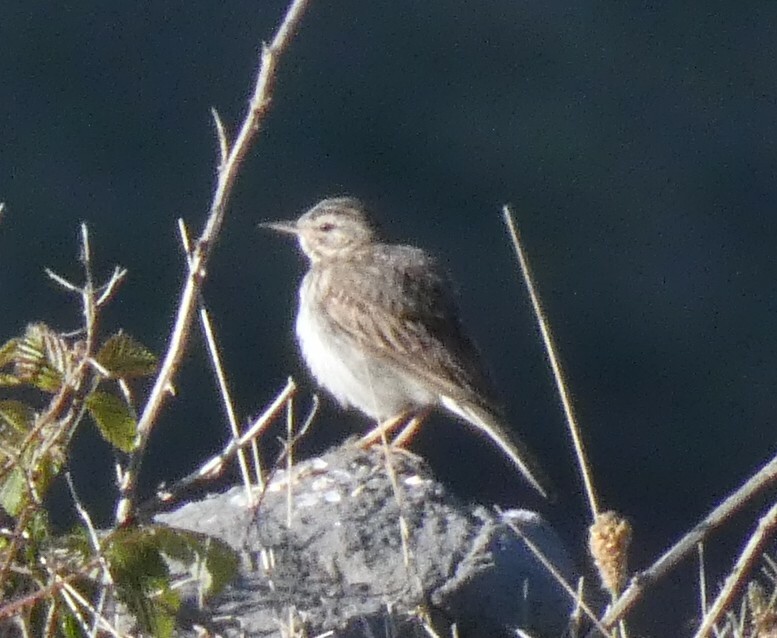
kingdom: Animalia
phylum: Chordata
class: Aves
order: Passeriformes
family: Motacillidae
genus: Anthus
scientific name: Anthus berthelotii
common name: Berthelot's pipit
